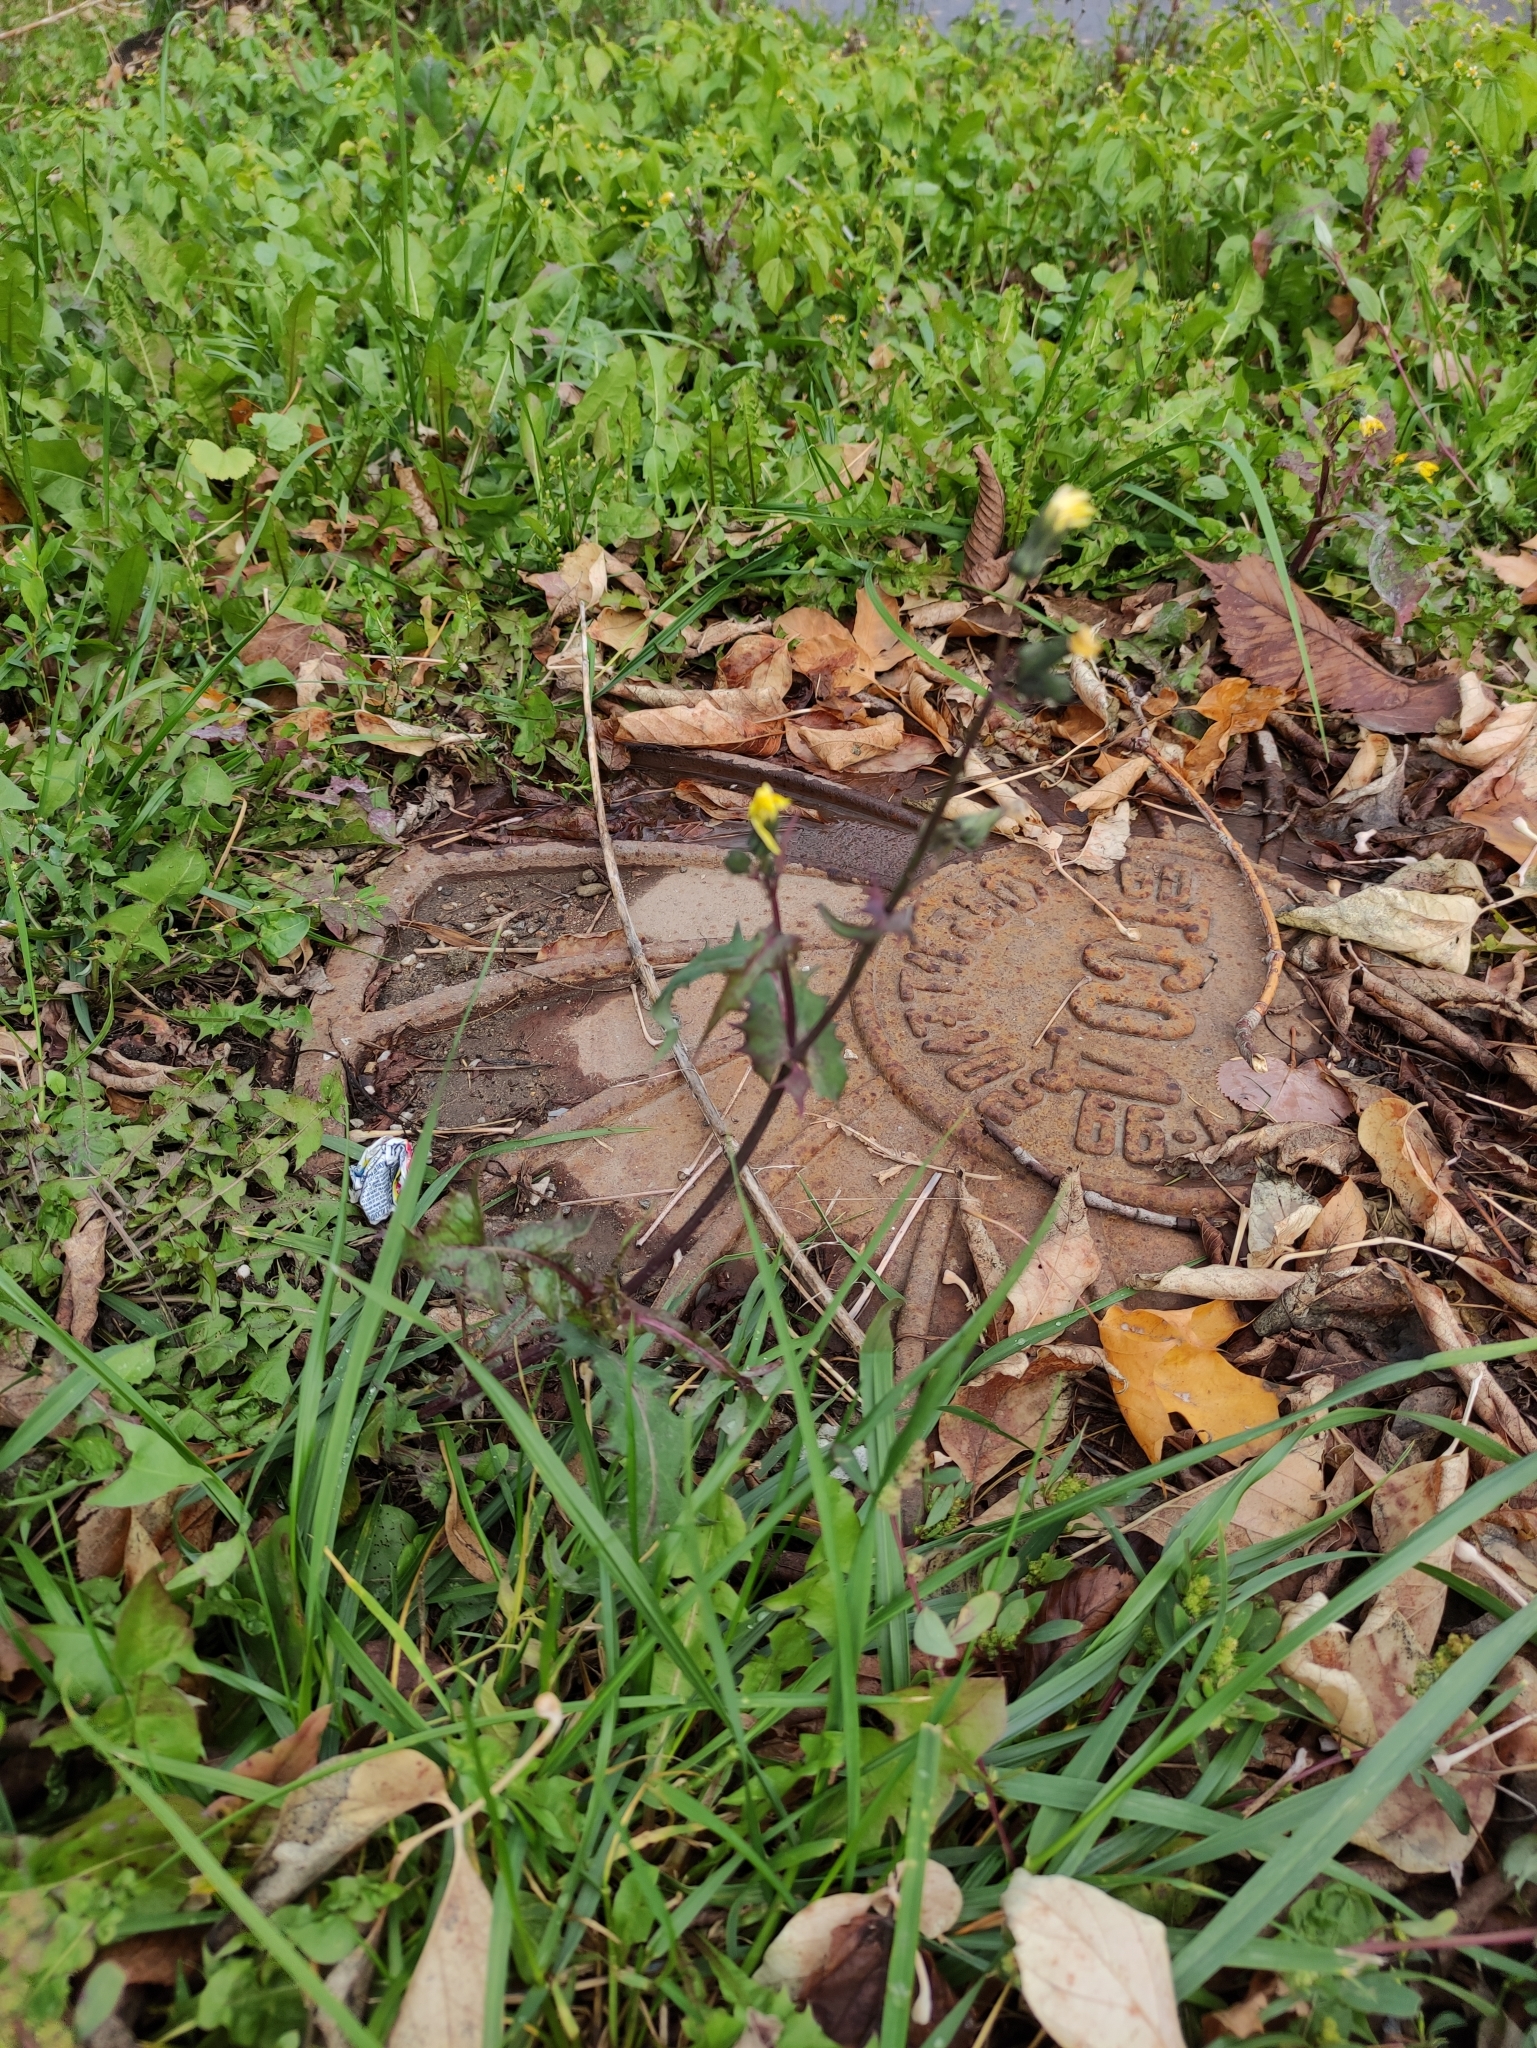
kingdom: Plantae
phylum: Tracheophyta
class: Magnoliopsida
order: Asterales
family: Asteraceae
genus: Sonchus
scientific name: Sonchus oleraceus
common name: Common sowthistle
